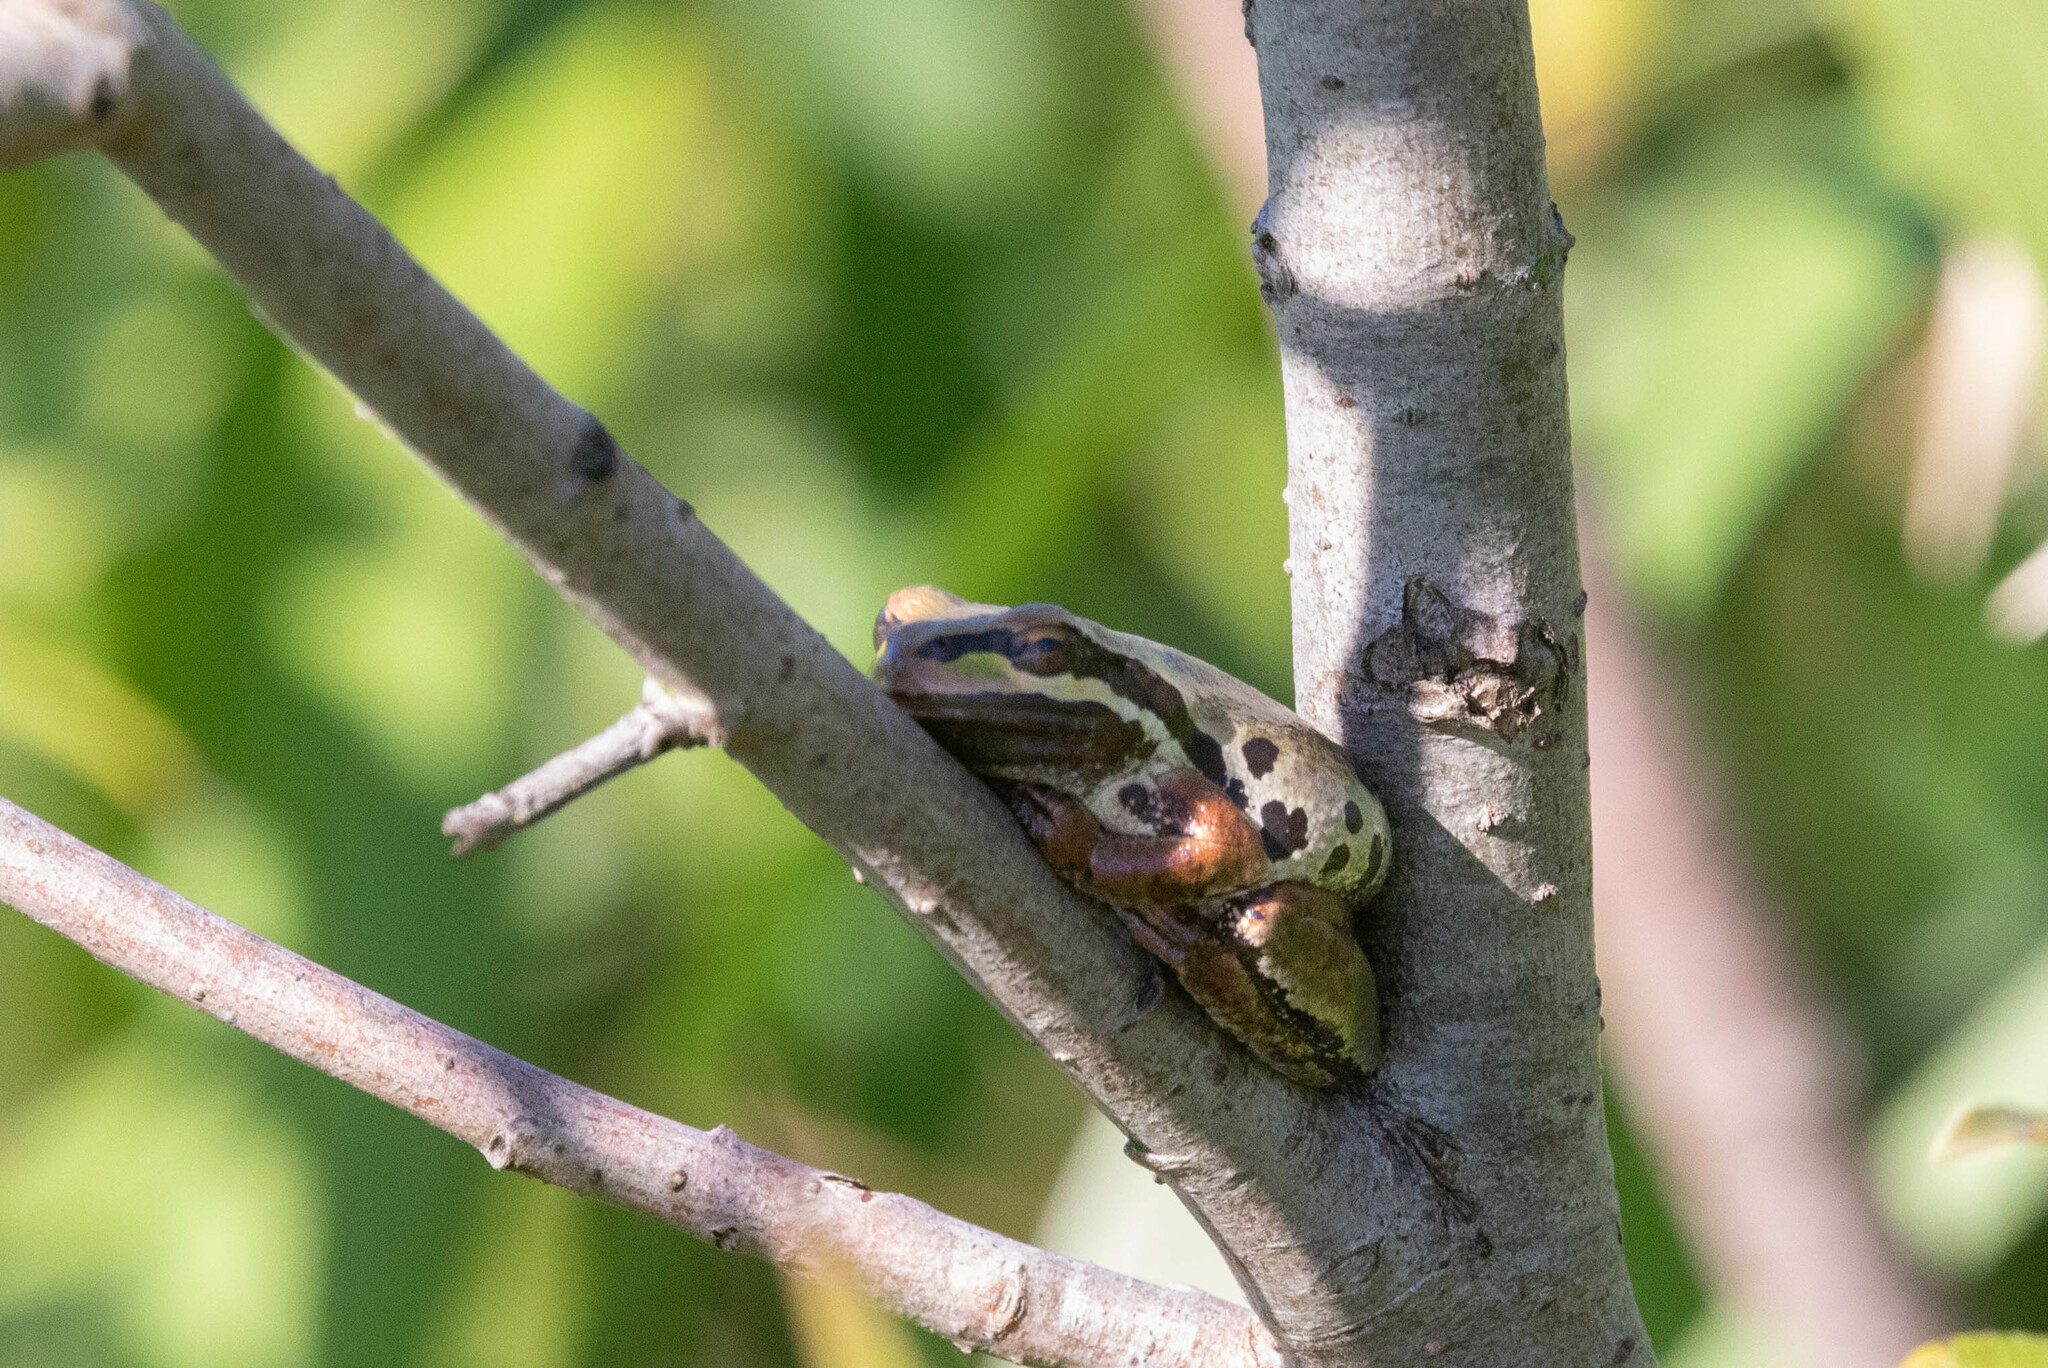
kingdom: Animalia
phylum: Chordata
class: Amphibia
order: Anura
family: Hylidae
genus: Pseudacris
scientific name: Pseudacris regilla
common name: Pacific chorus frog
